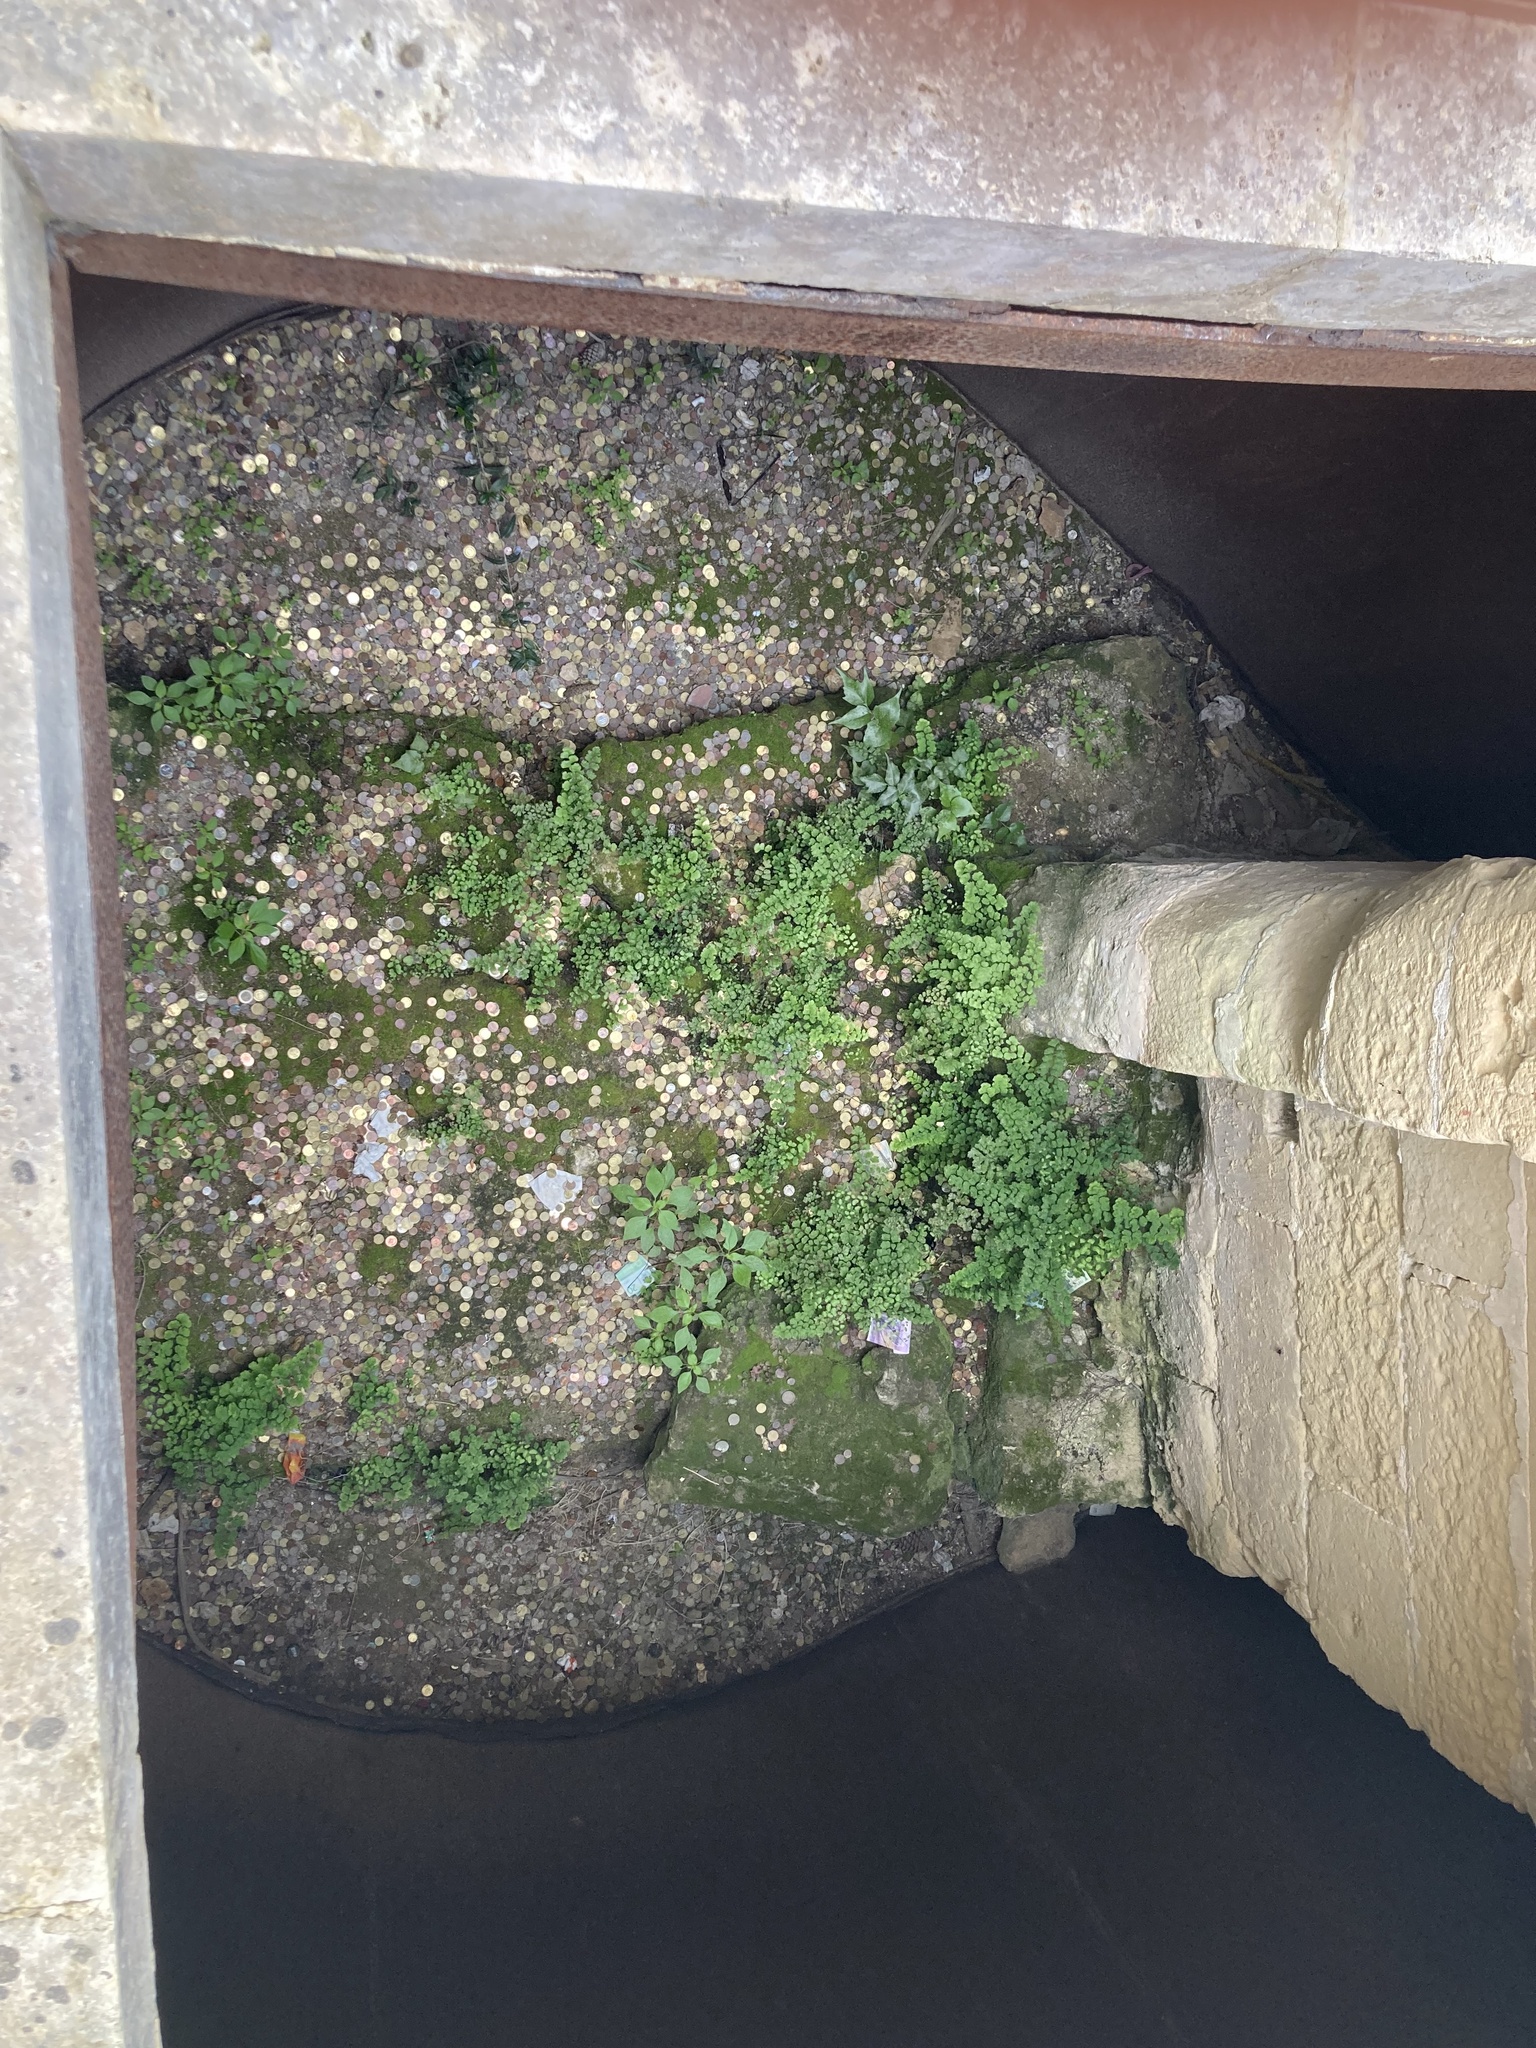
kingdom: Plantae
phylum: Tracheophyta
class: Polypodiopsida
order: Polypodiales
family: Dryopteridaceae
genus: Cyrtomium
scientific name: Cyrtomium falcatum
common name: House holly-fern
